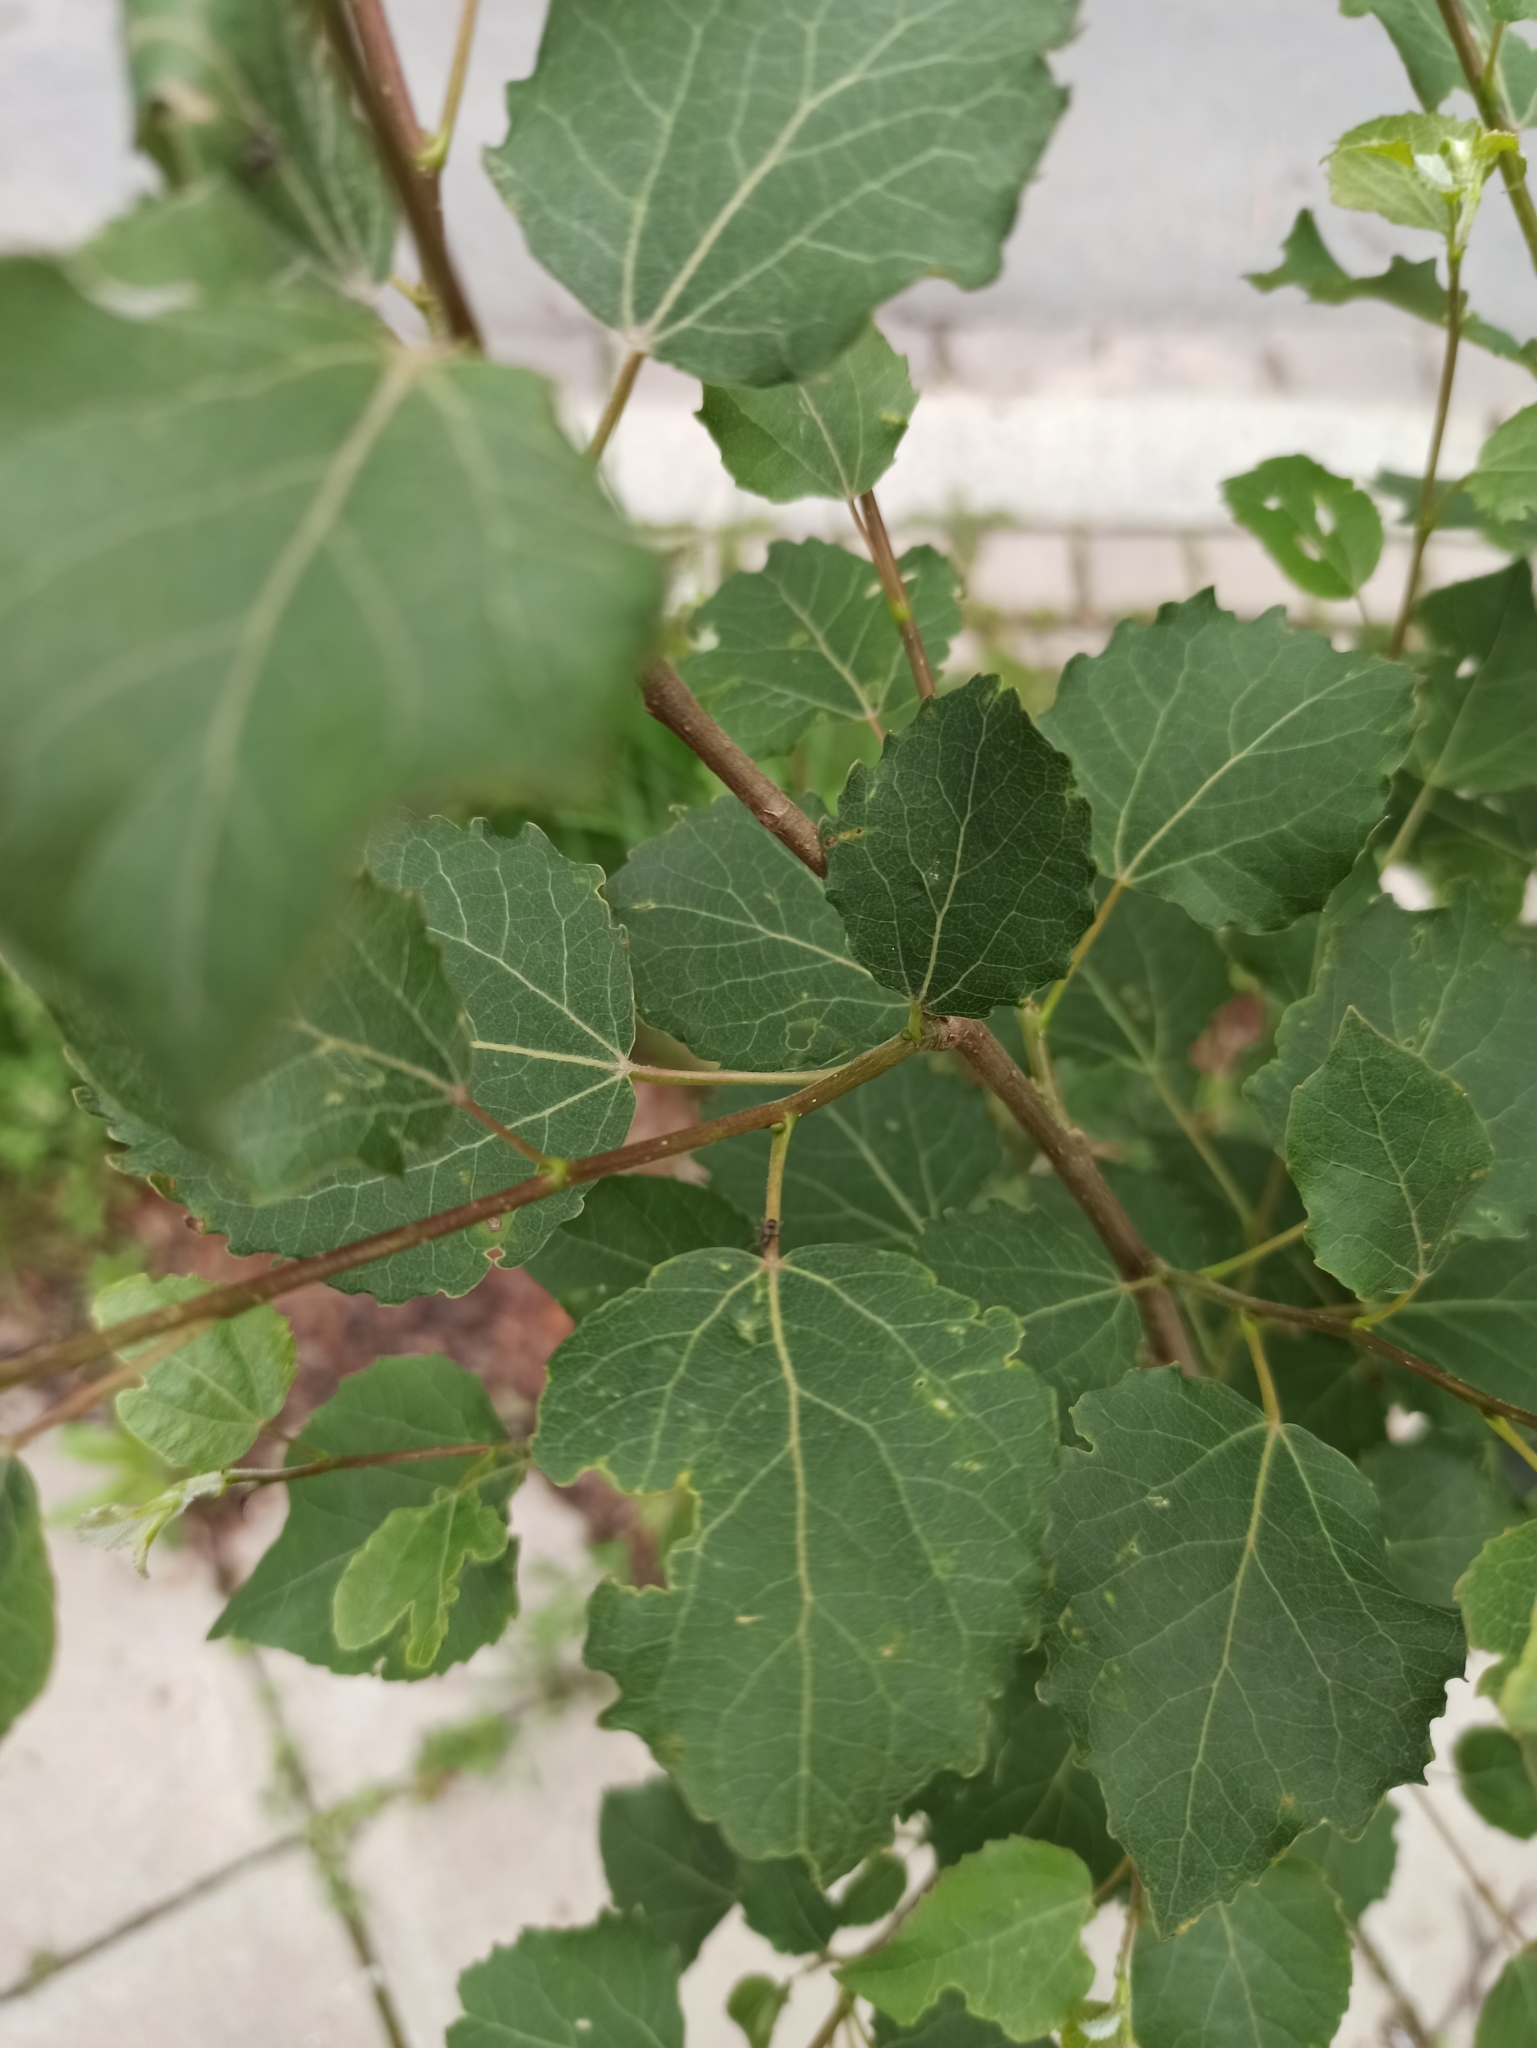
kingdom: Plantae
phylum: Tracheophyta
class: Magnoliopsida
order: Malpighiales
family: Salicaceae
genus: Populus
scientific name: Populus tremula
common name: European aspen
